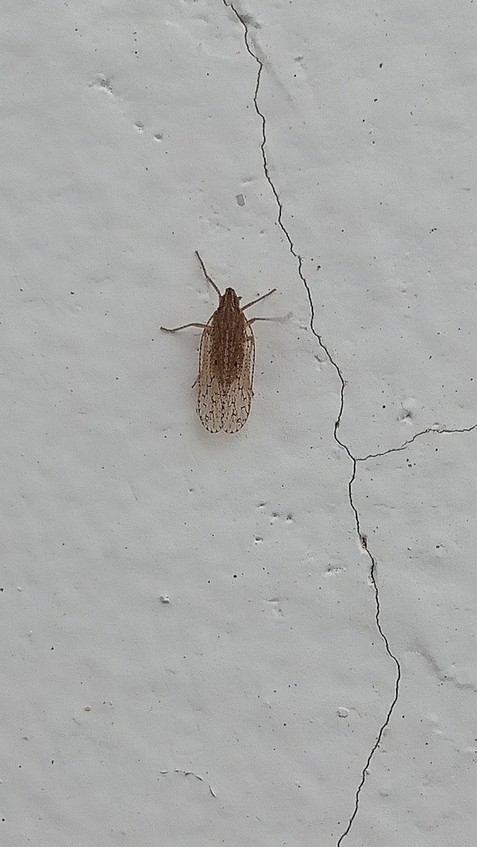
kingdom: Animalia
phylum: Arthropoda
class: Insecta
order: Hemiptera
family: Cixiidae
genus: Aulocorypha
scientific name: Aulocorypha punctulata
